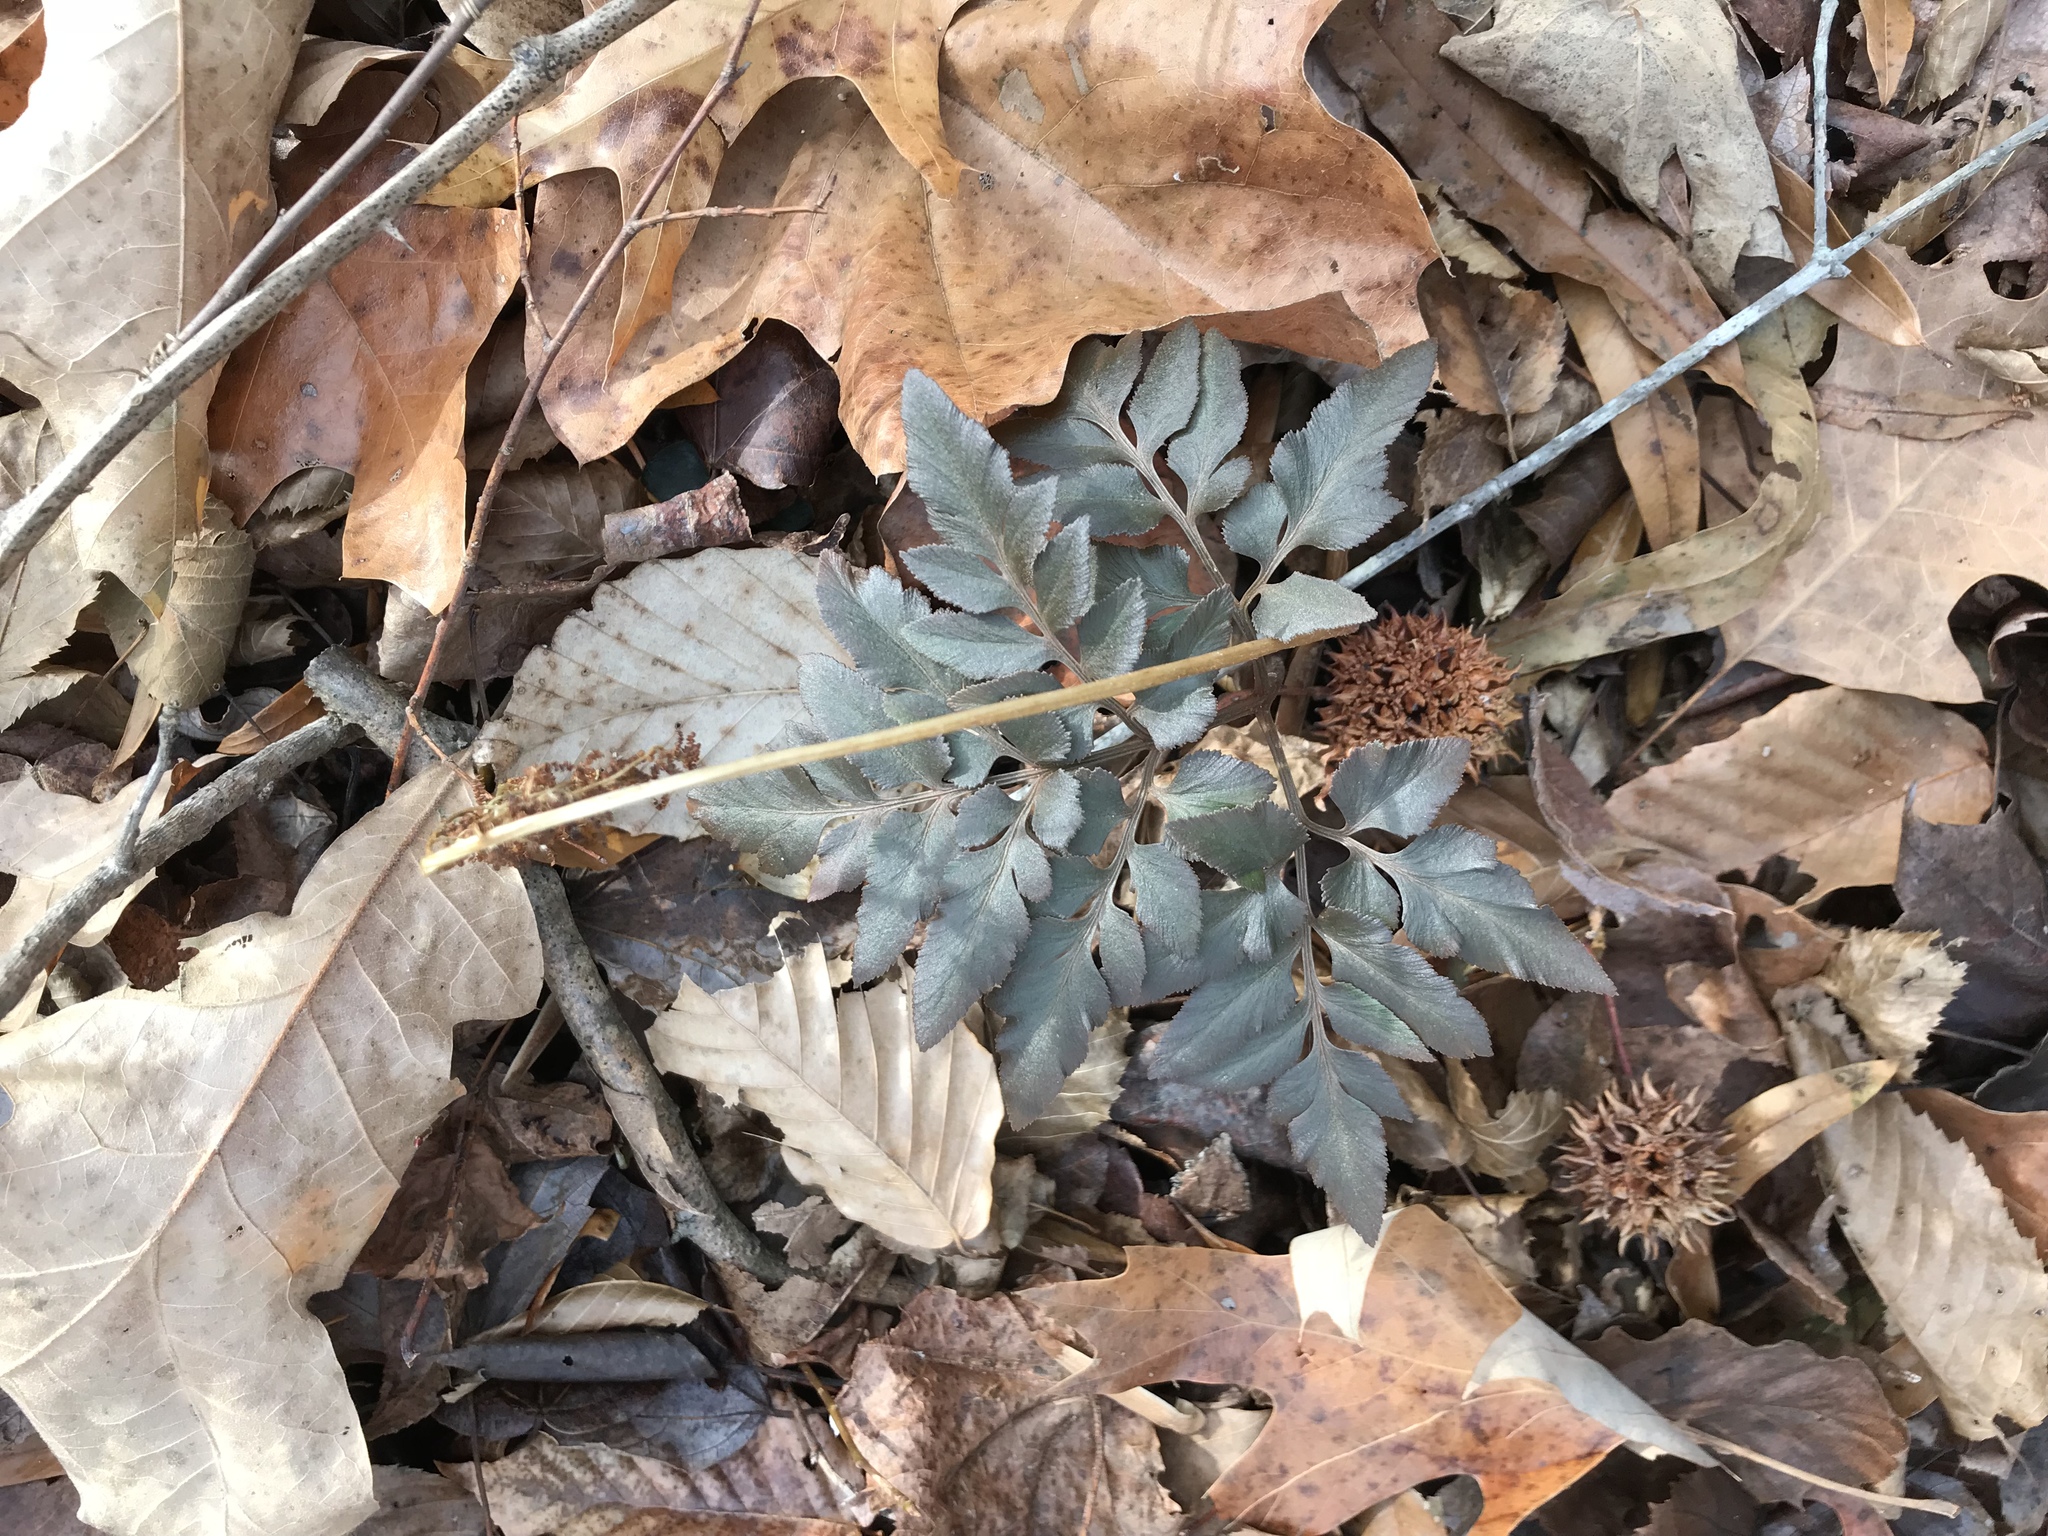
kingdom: Plantae
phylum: Tracheophyta
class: Polypodiopsida
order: Ophioglossales
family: Ophioglossaceae
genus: Sceptridium
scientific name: Sceptridium biternatum
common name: Sparse-lobed grapefern
